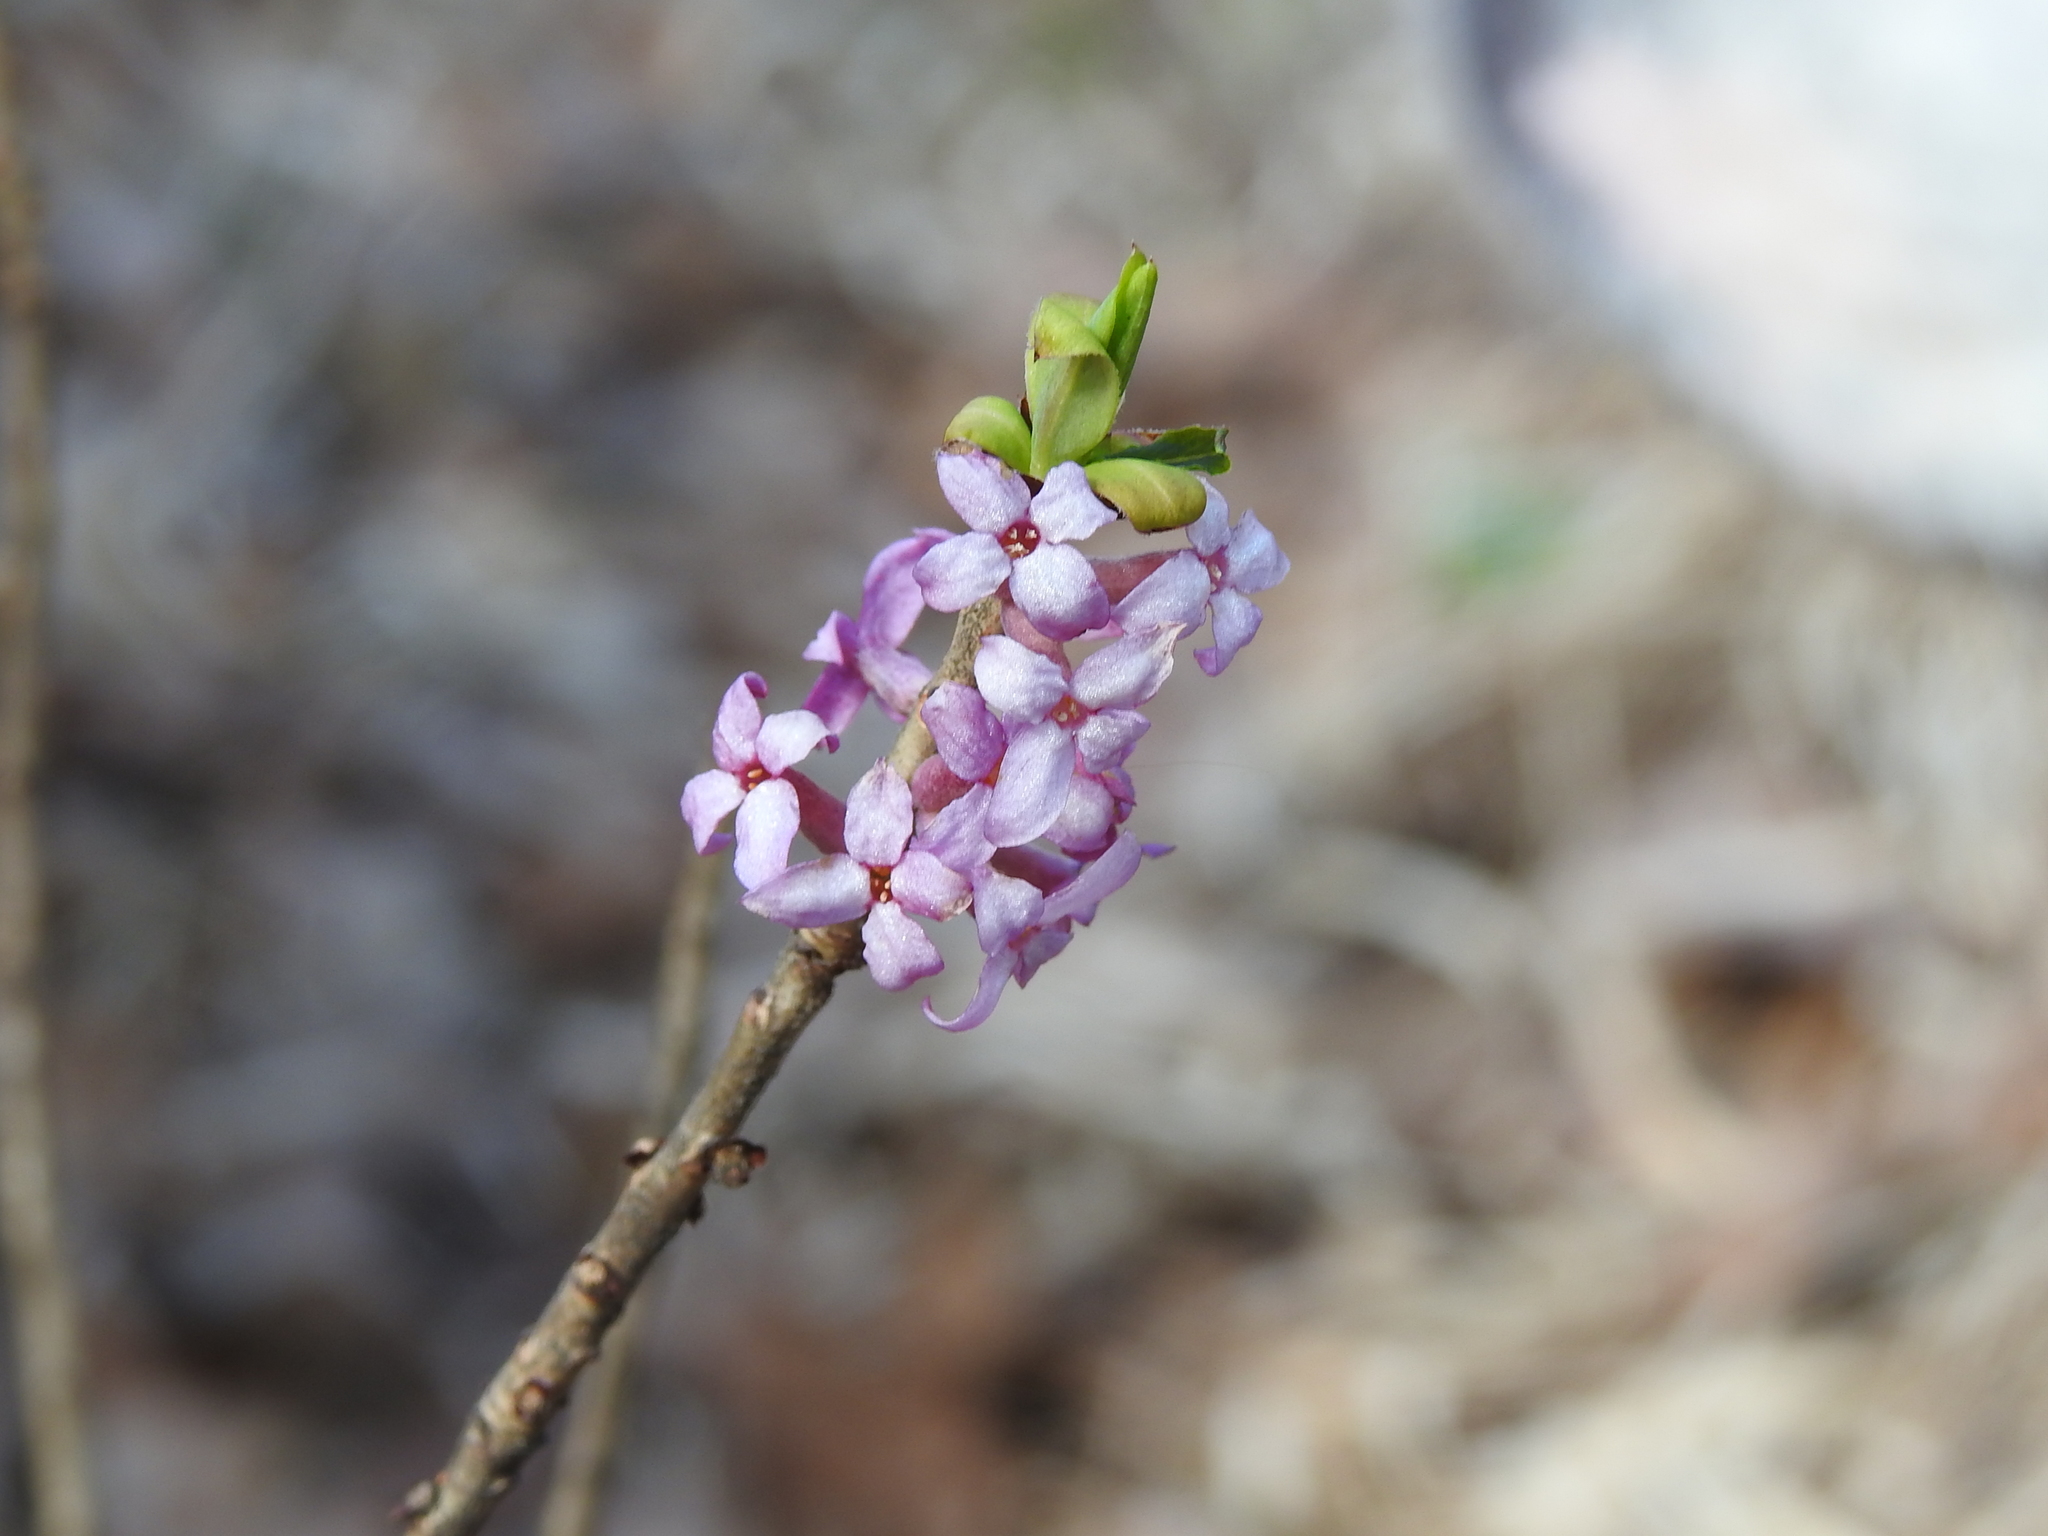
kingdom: Plantae
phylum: Tracheophyta
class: Magnoliopsida
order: Malvales
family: Thymelaeaceae
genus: Daphne
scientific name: Daphne mezereum
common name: Mezereon
